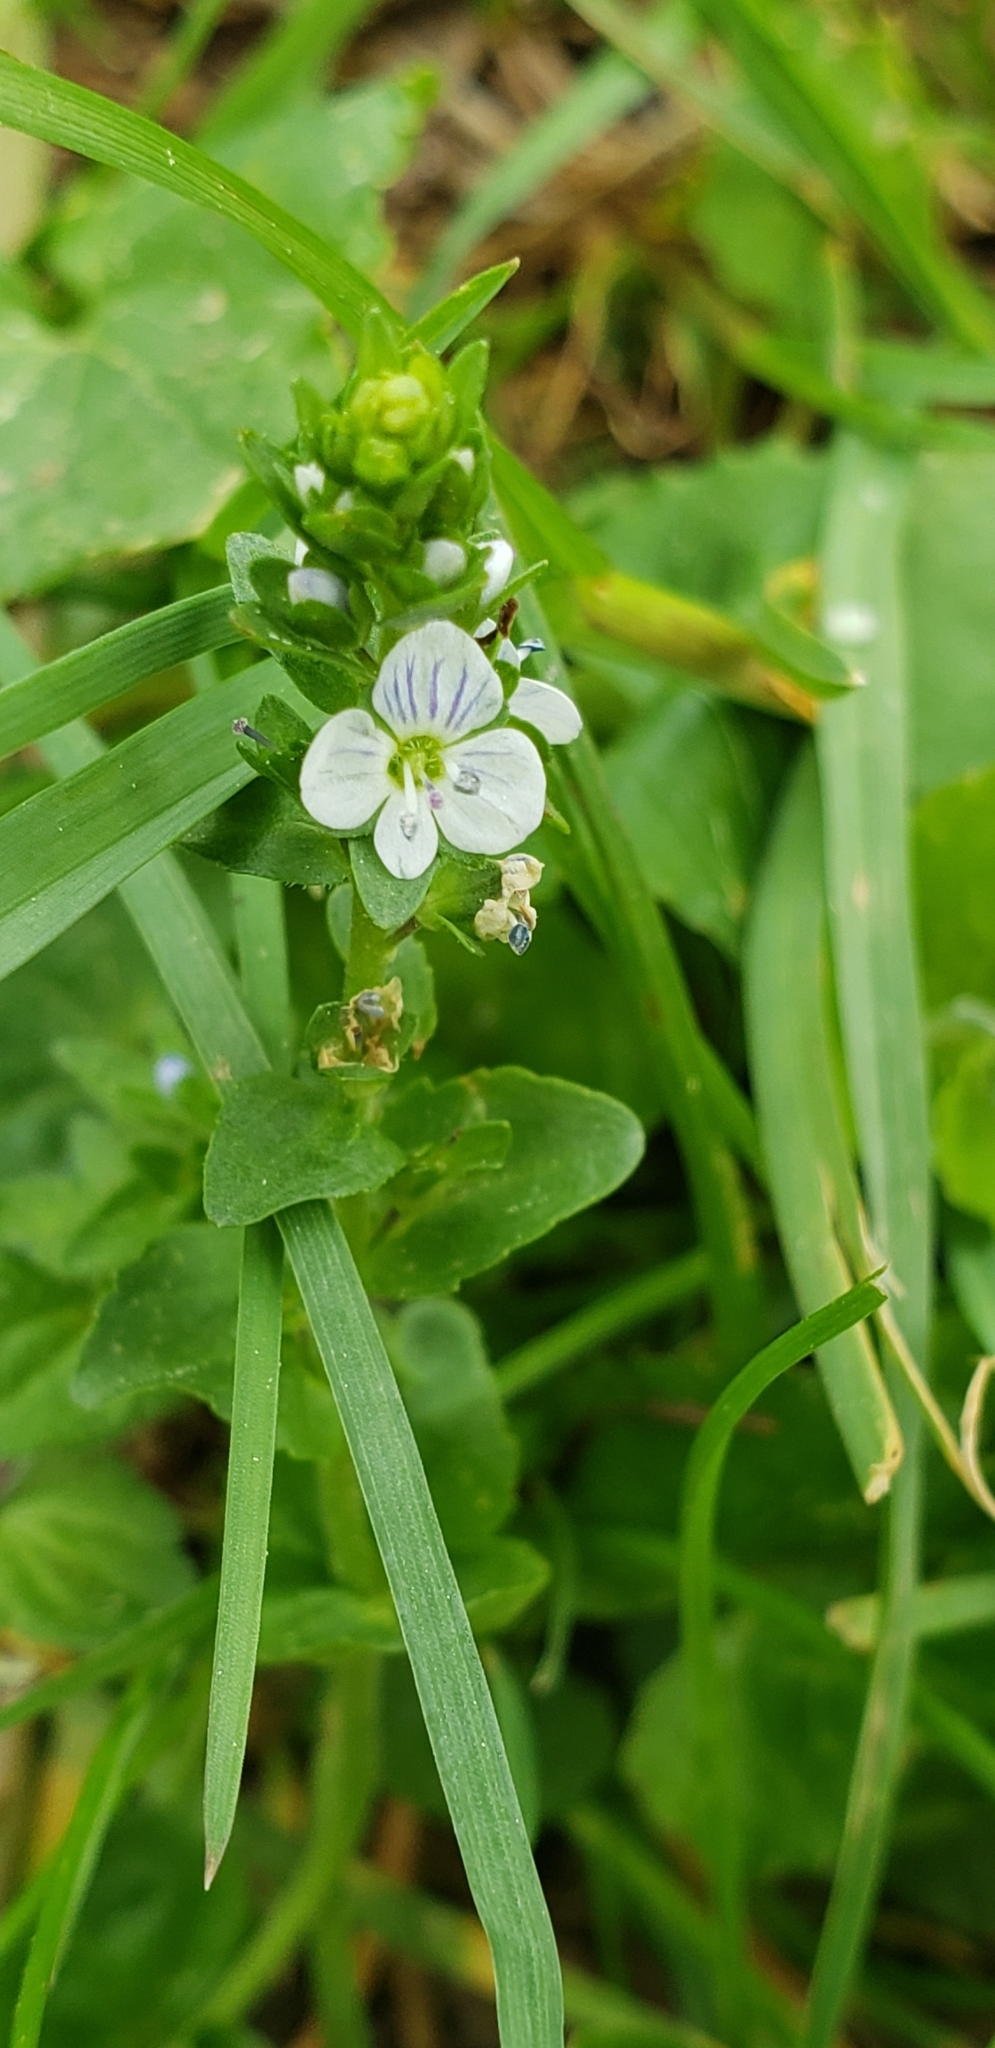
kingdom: Plantae
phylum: Tracheophyta
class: Magnoliopsida
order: Lamiales
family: Plantaginaceae
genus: Veronica
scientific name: Veronica serpyllifolia
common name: Thyme-leaved speedwell
